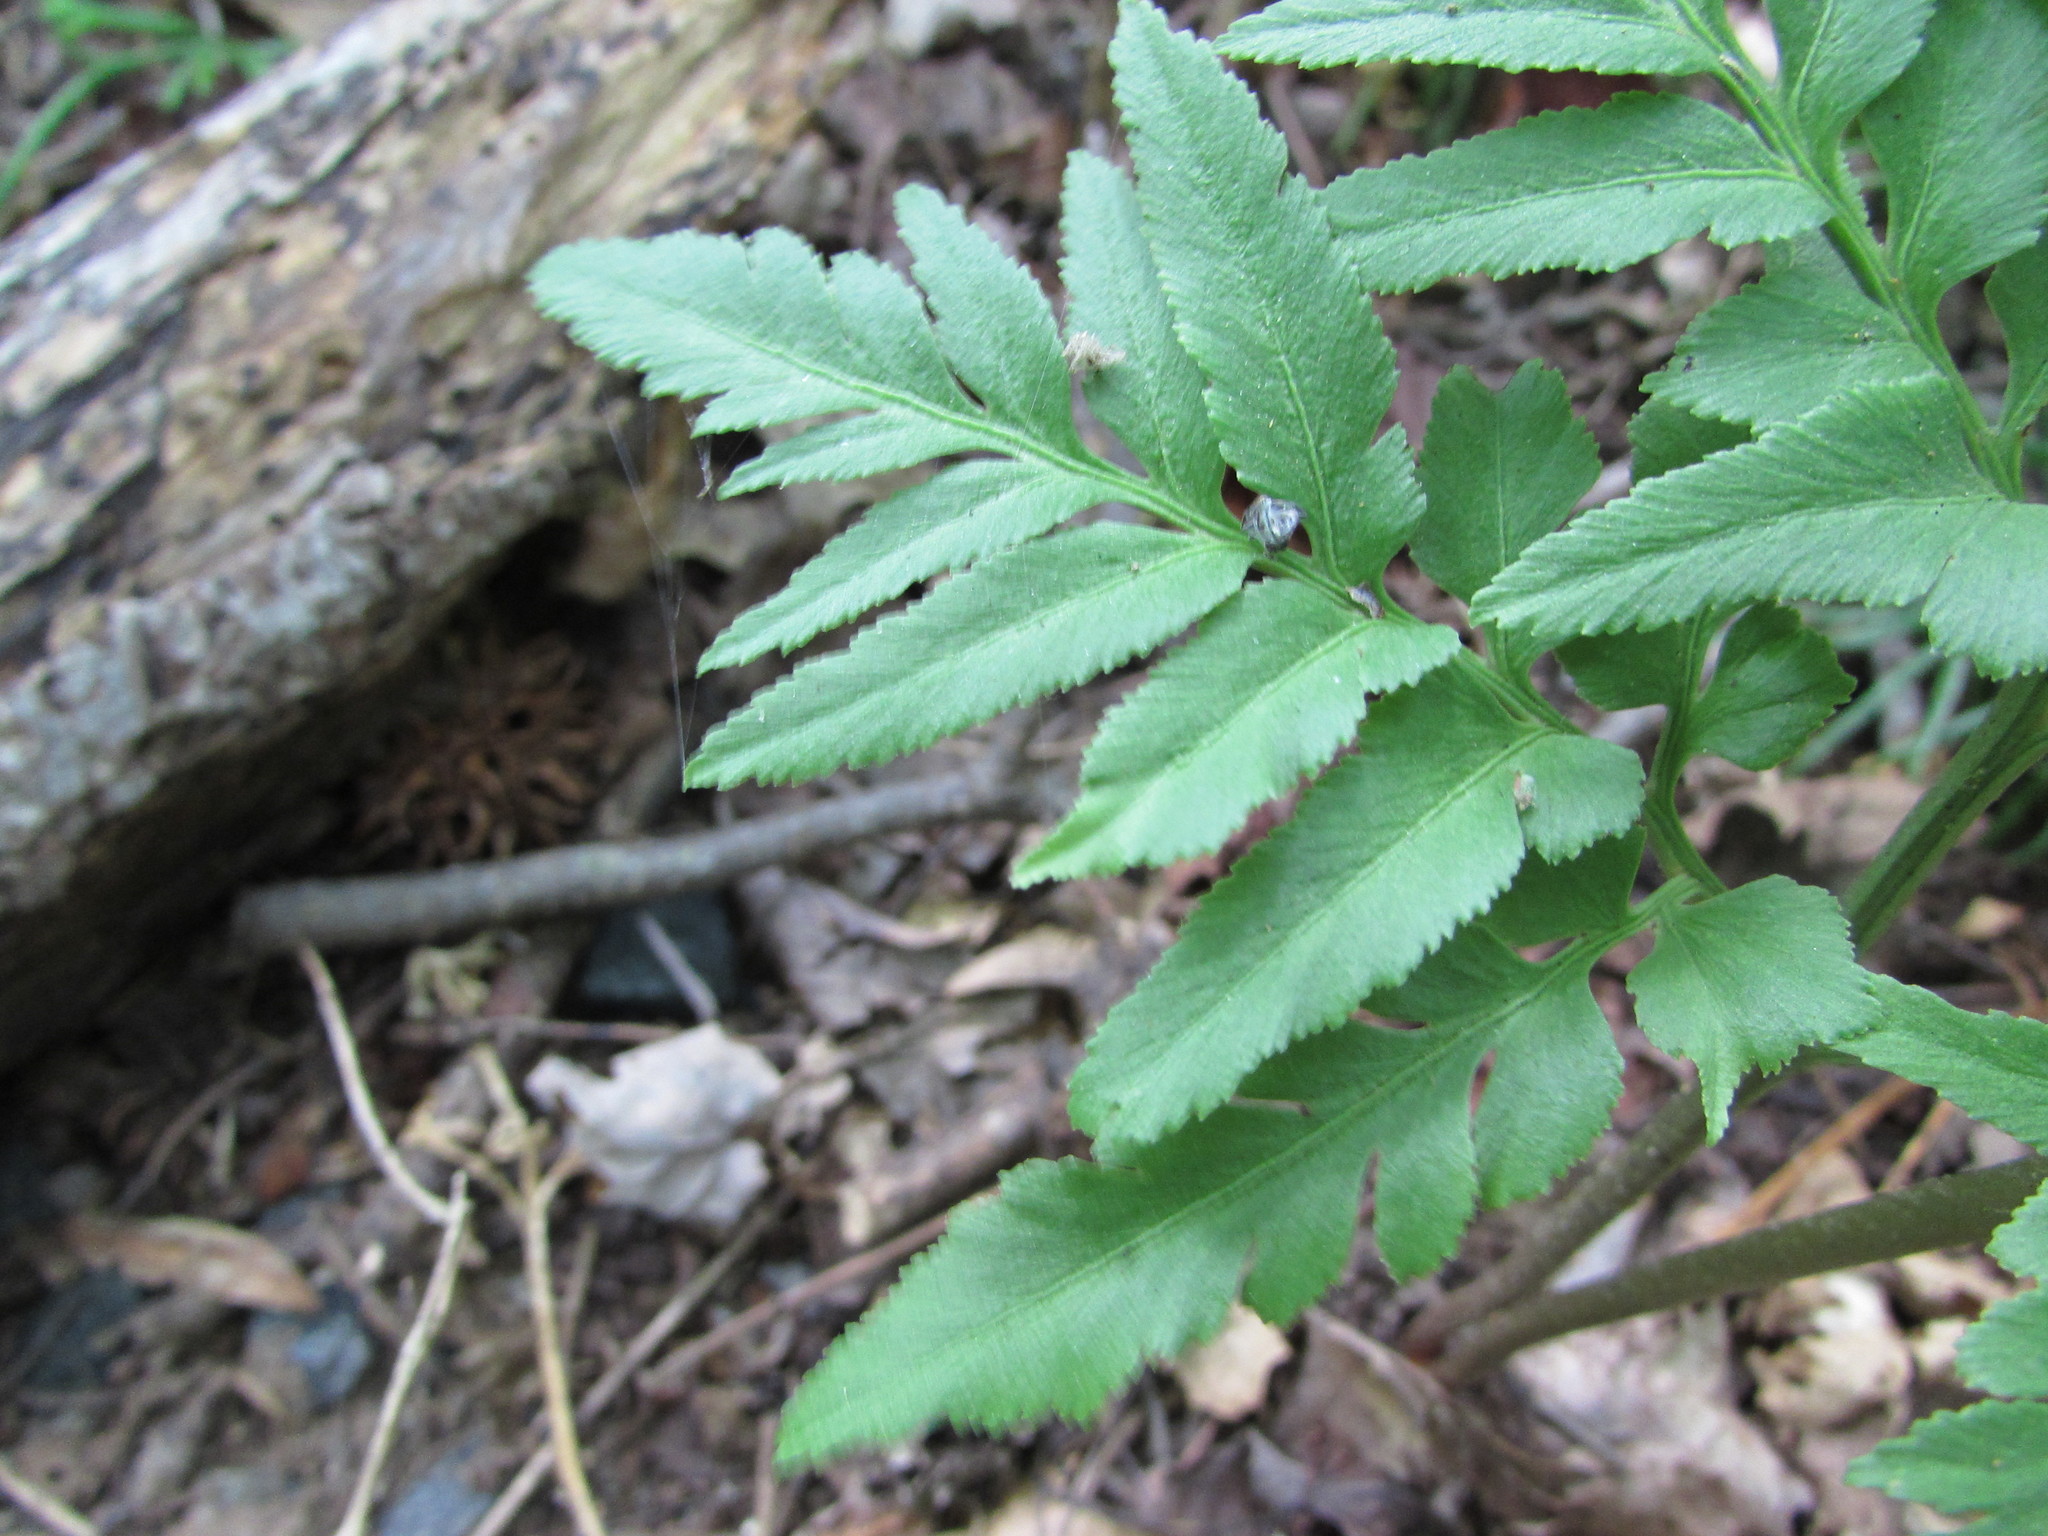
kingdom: Plantae
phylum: Tracheophyta
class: Polypodiopsida
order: Ophioglossales
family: Ophioglossaceae
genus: Sceptridium
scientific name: Sceptridium dissectum
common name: Cut-leaved grapefern
